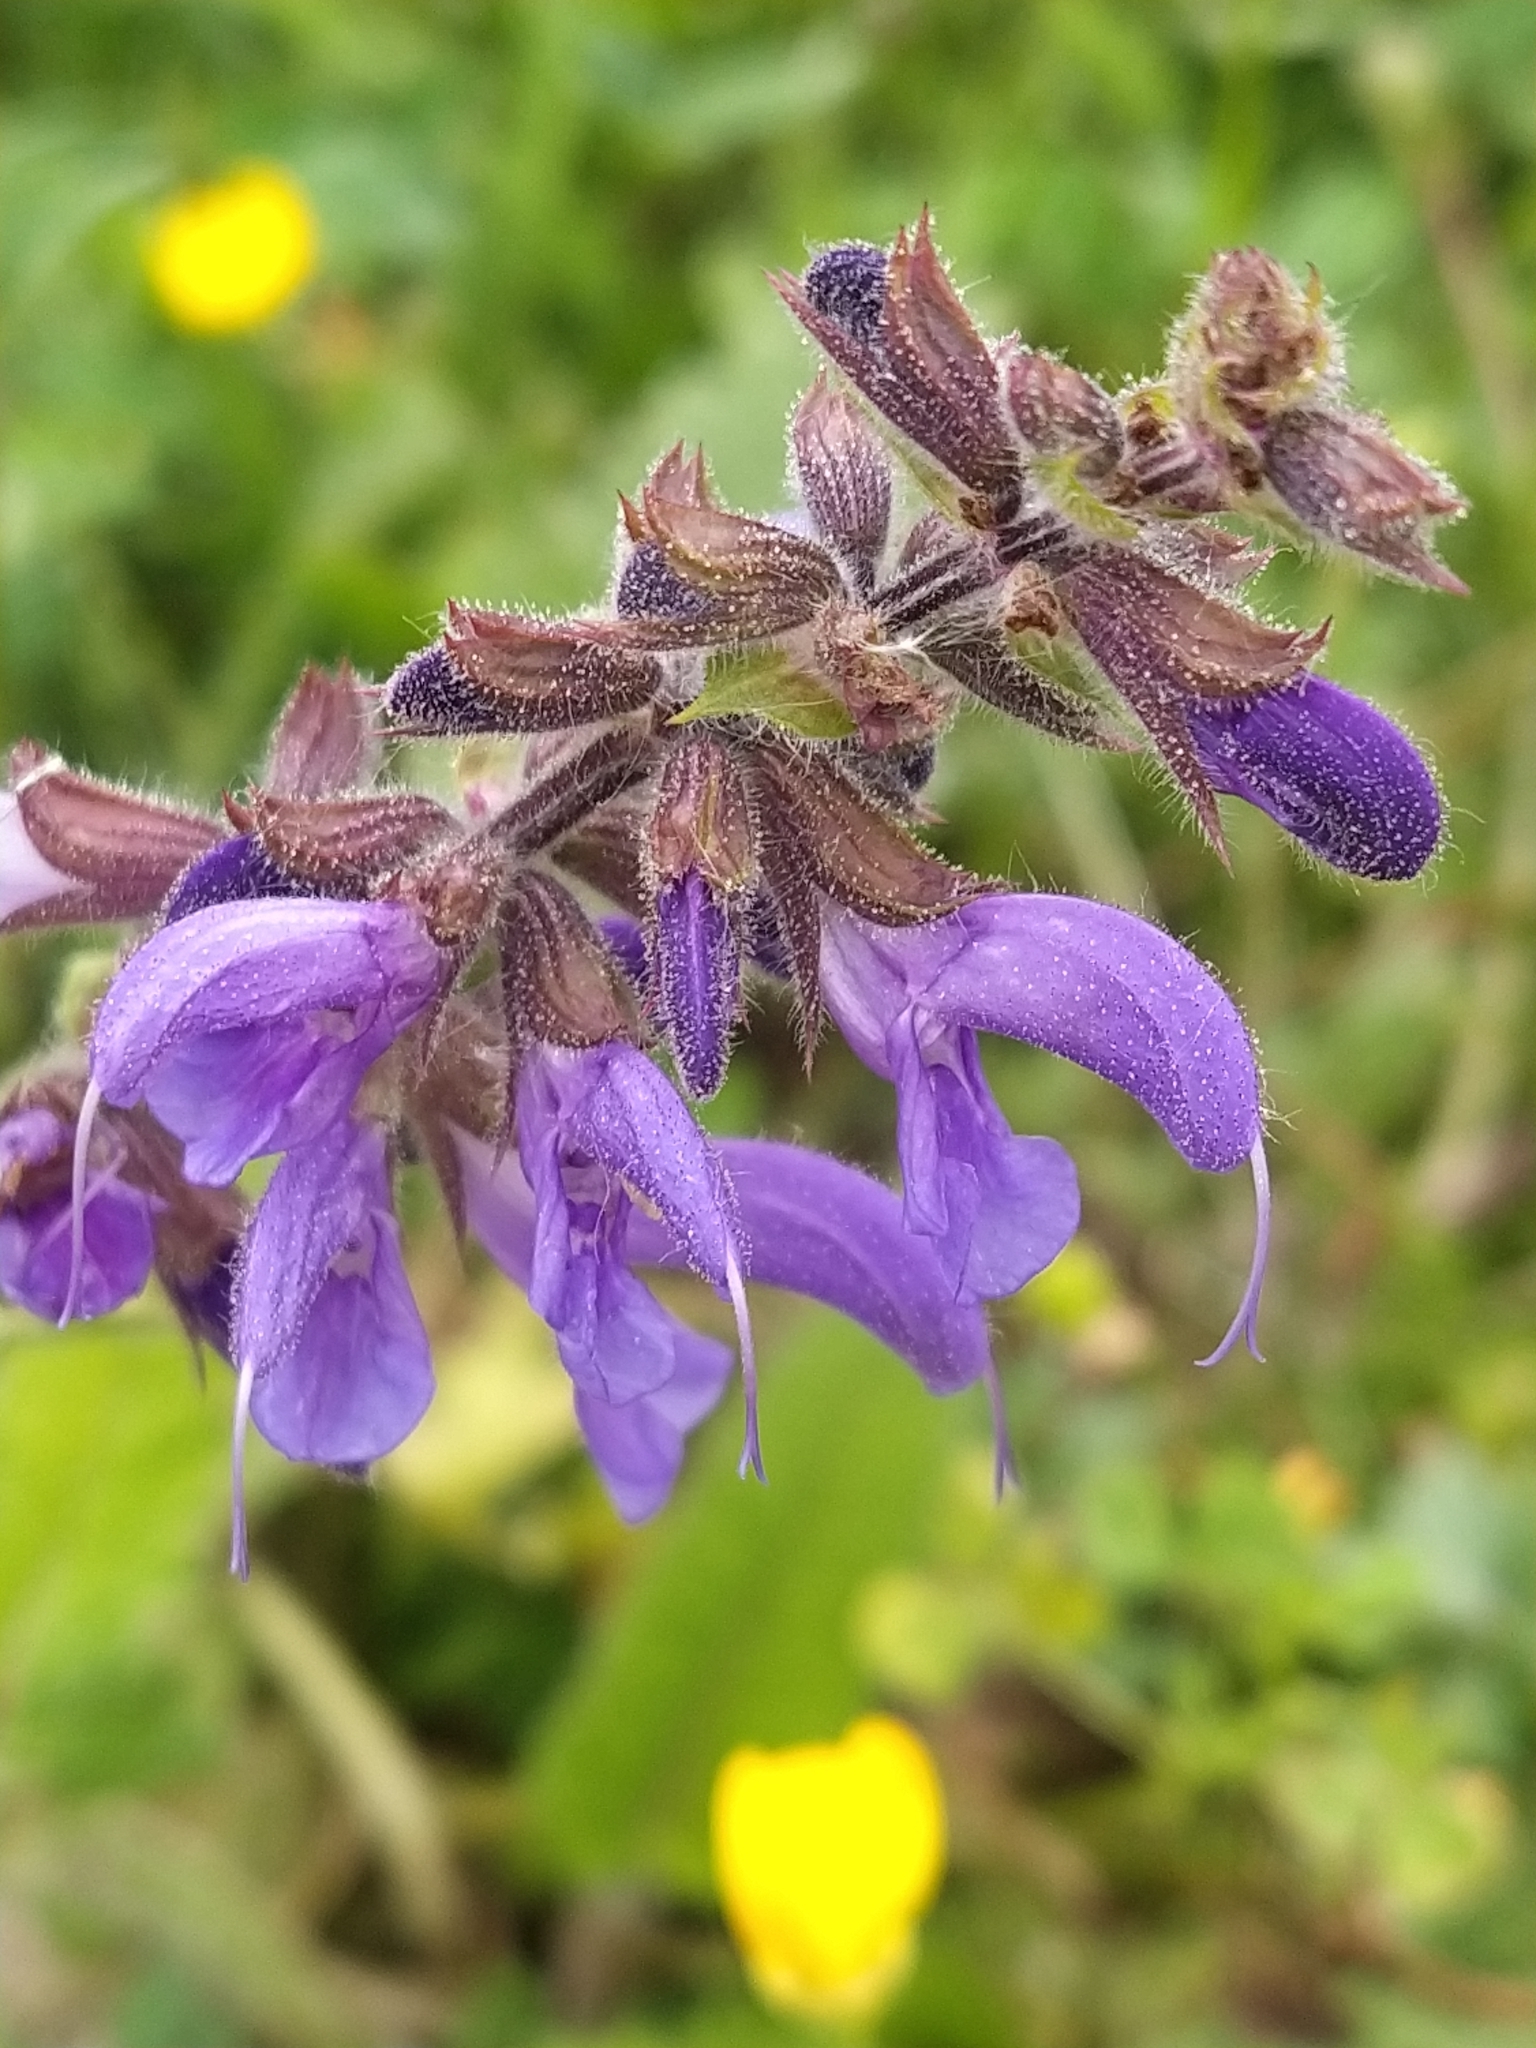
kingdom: Plantae
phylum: Tracheophyta
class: Magnoliopsida
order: Lamiales
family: Lamiaceae
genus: Salvia
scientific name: Salvia pratensis
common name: Meadow sage
